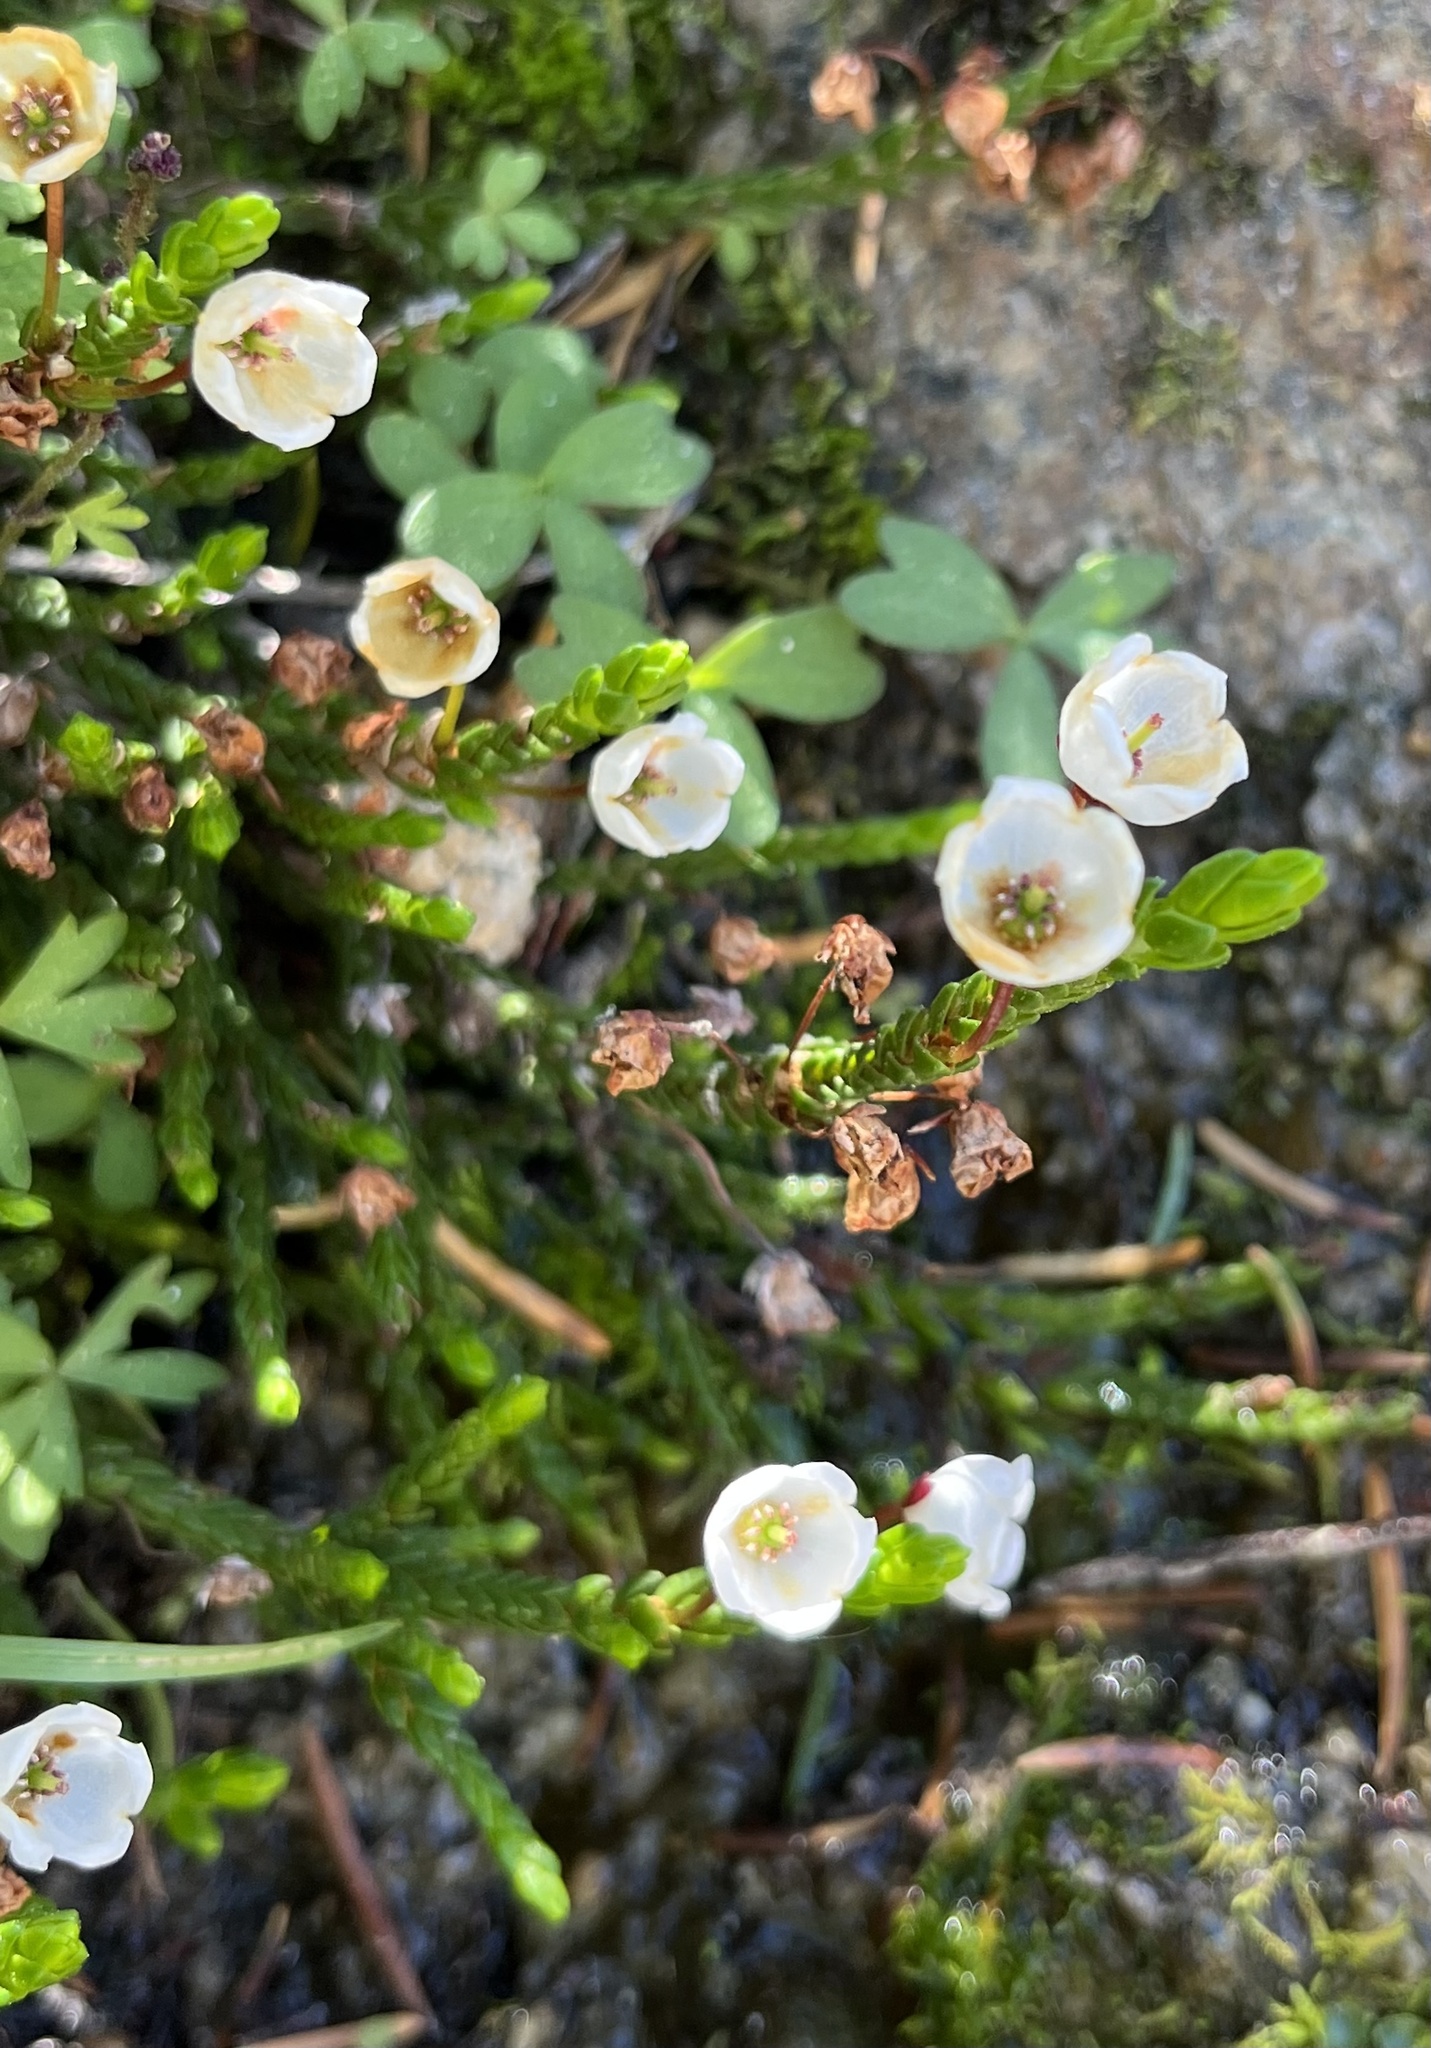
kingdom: Plantae
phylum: Tracheophyta
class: Magnoliopsida
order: Ericales
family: Ericaceae
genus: Cassiope
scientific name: Cassiope mertensiana
